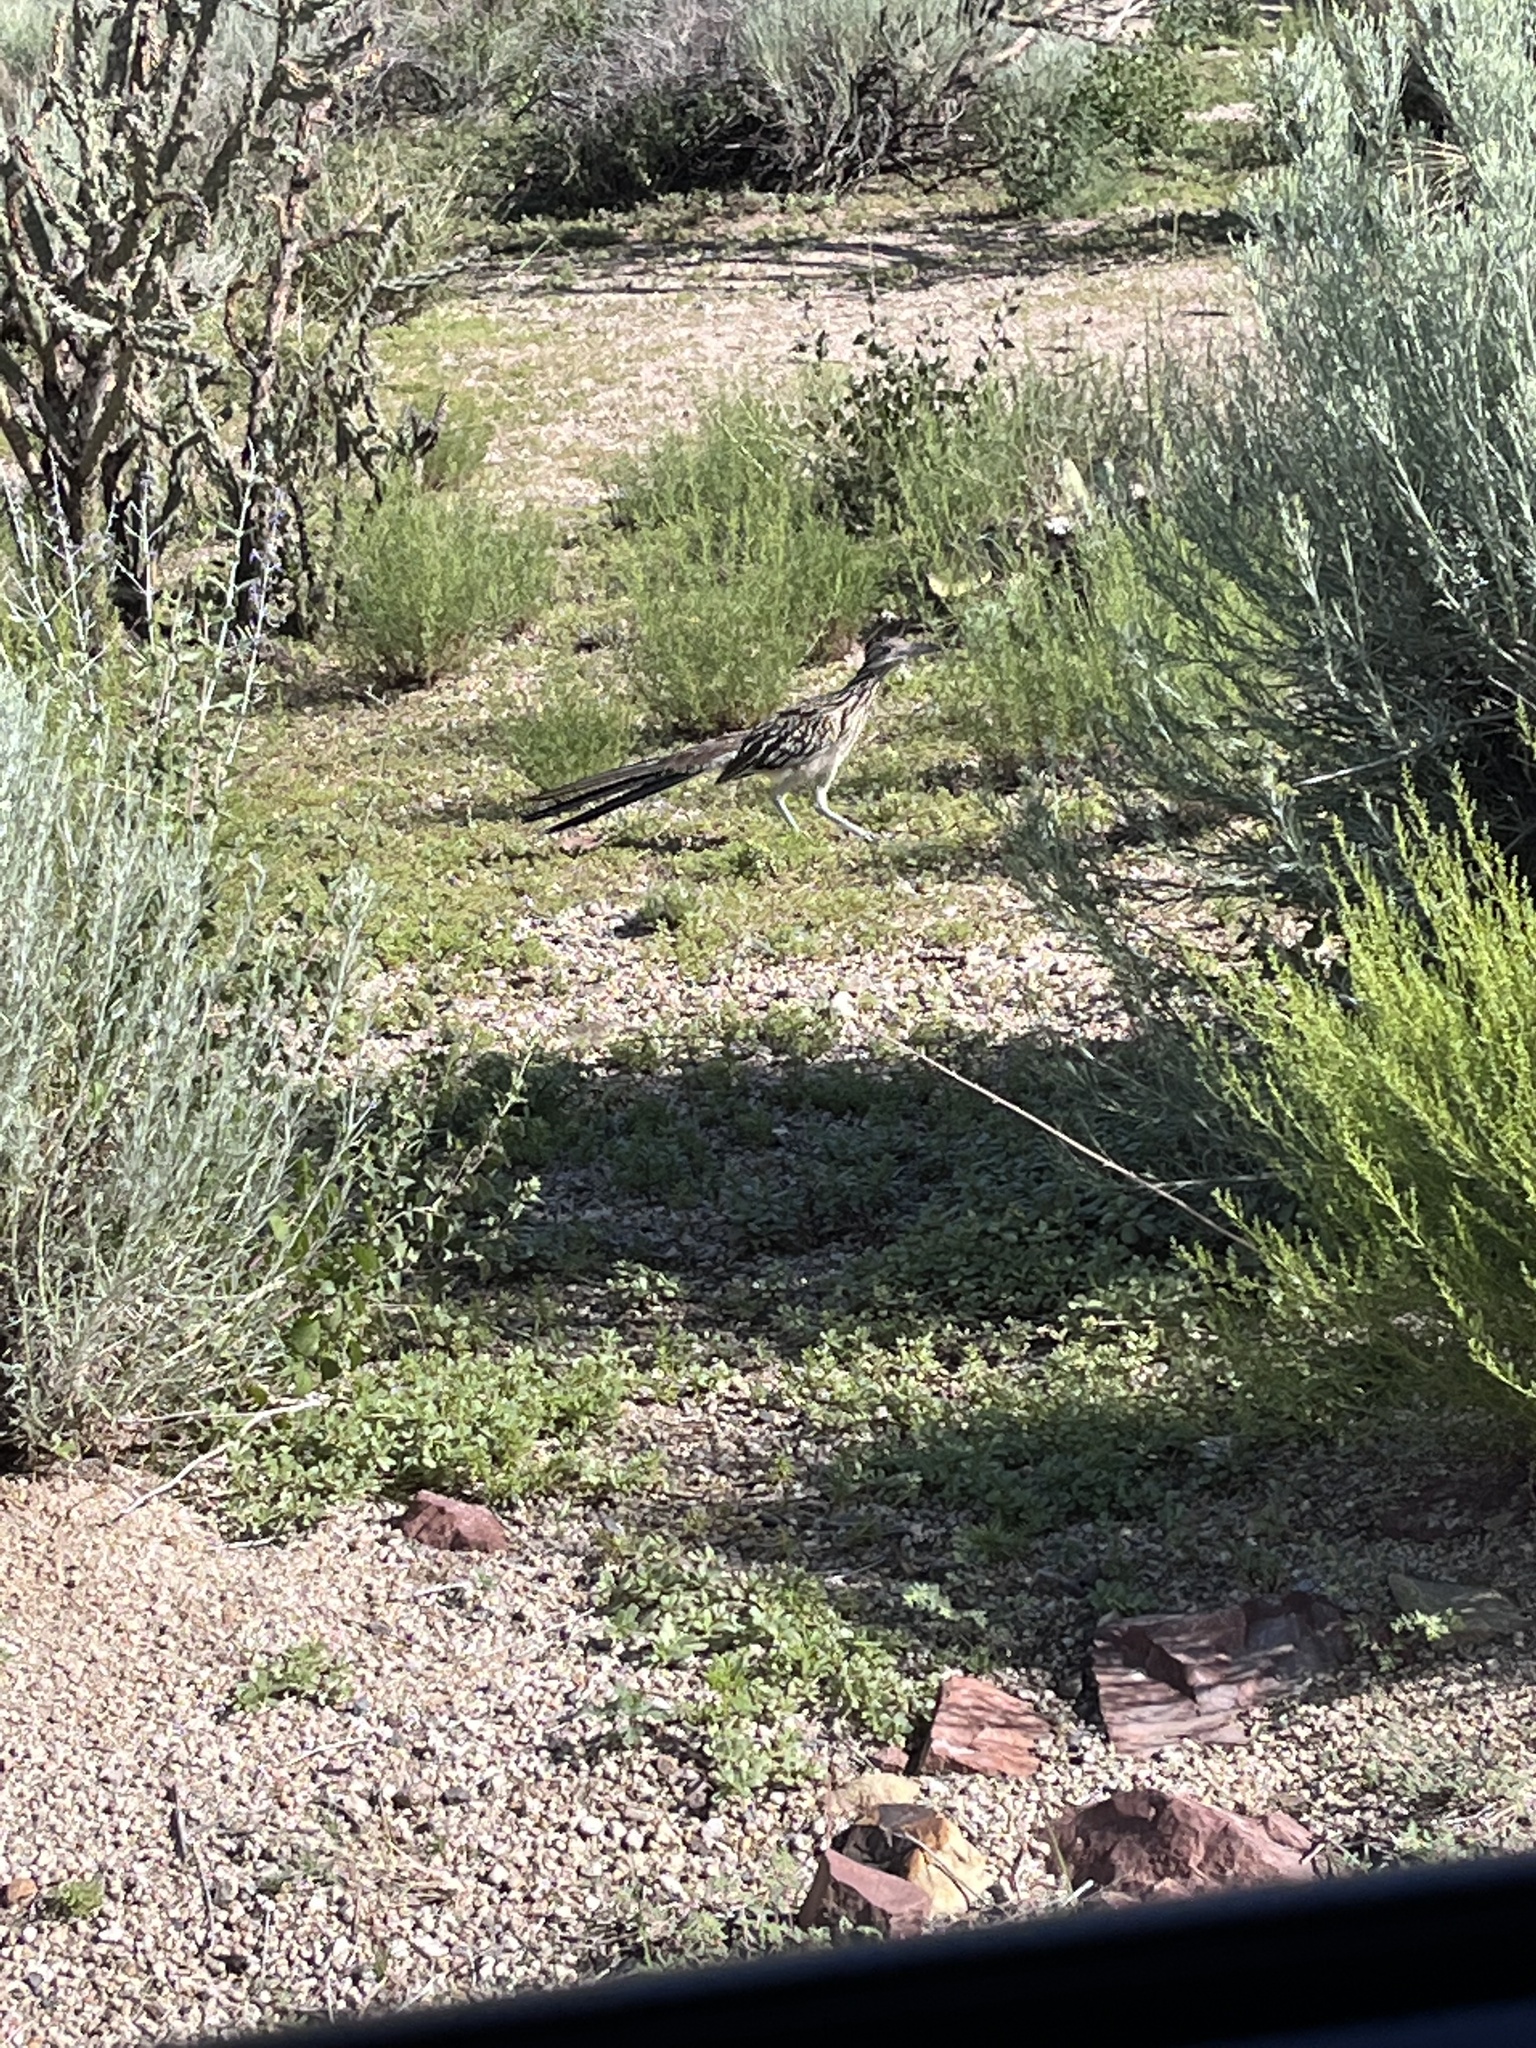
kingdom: Animalia
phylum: Chordata
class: Aves
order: Cuculiformes
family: Cuculidae
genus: Geococcyx
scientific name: Geococcyx californianus
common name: Greater roadrunner
